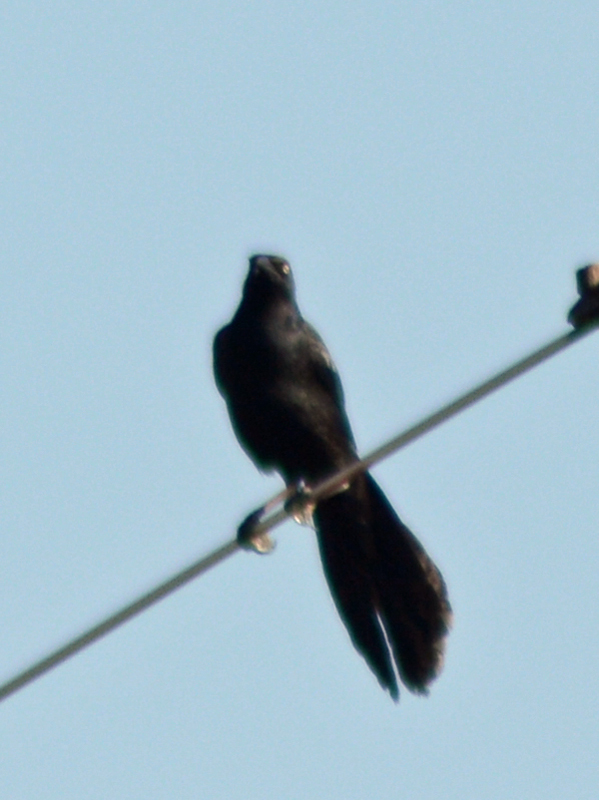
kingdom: Animalia
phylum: Chordata
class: Aves
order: Passeriformes
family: Icteridae
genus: Quiscalus
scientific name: Quiscalus mexicanus
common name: Great-tailed grackle
